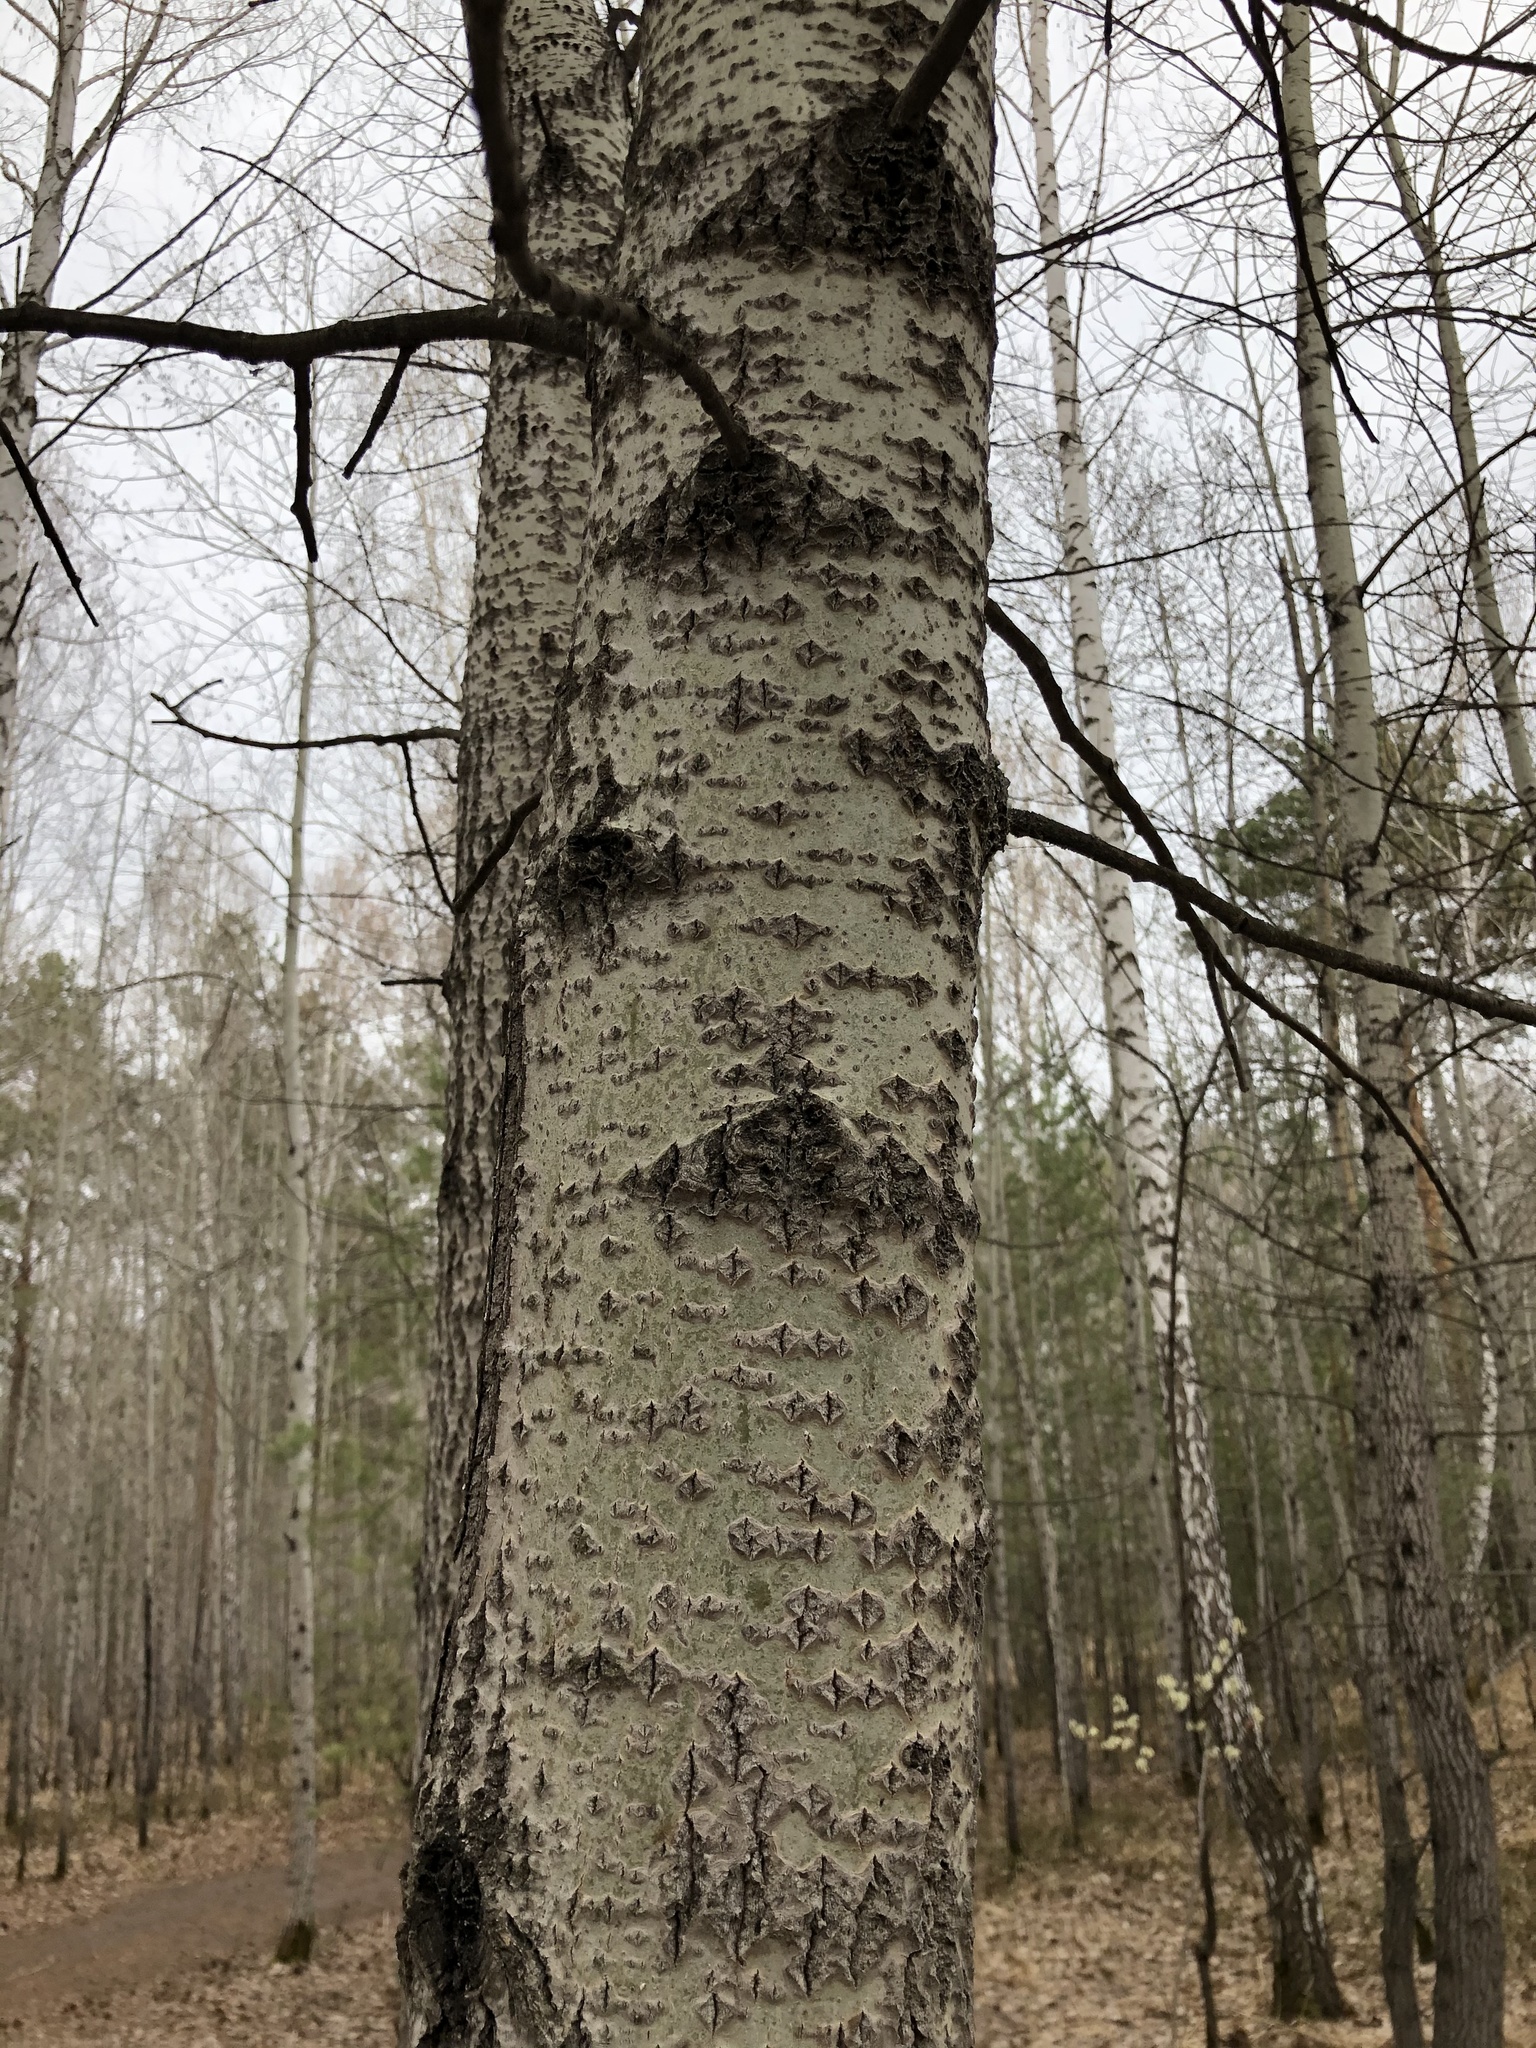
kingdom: Plantae
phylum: Tracheophyta
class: Magnoliopsida
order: Malpighiales
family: Salicaceae
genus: Populus
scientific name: Populus tremula
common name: European aspen
